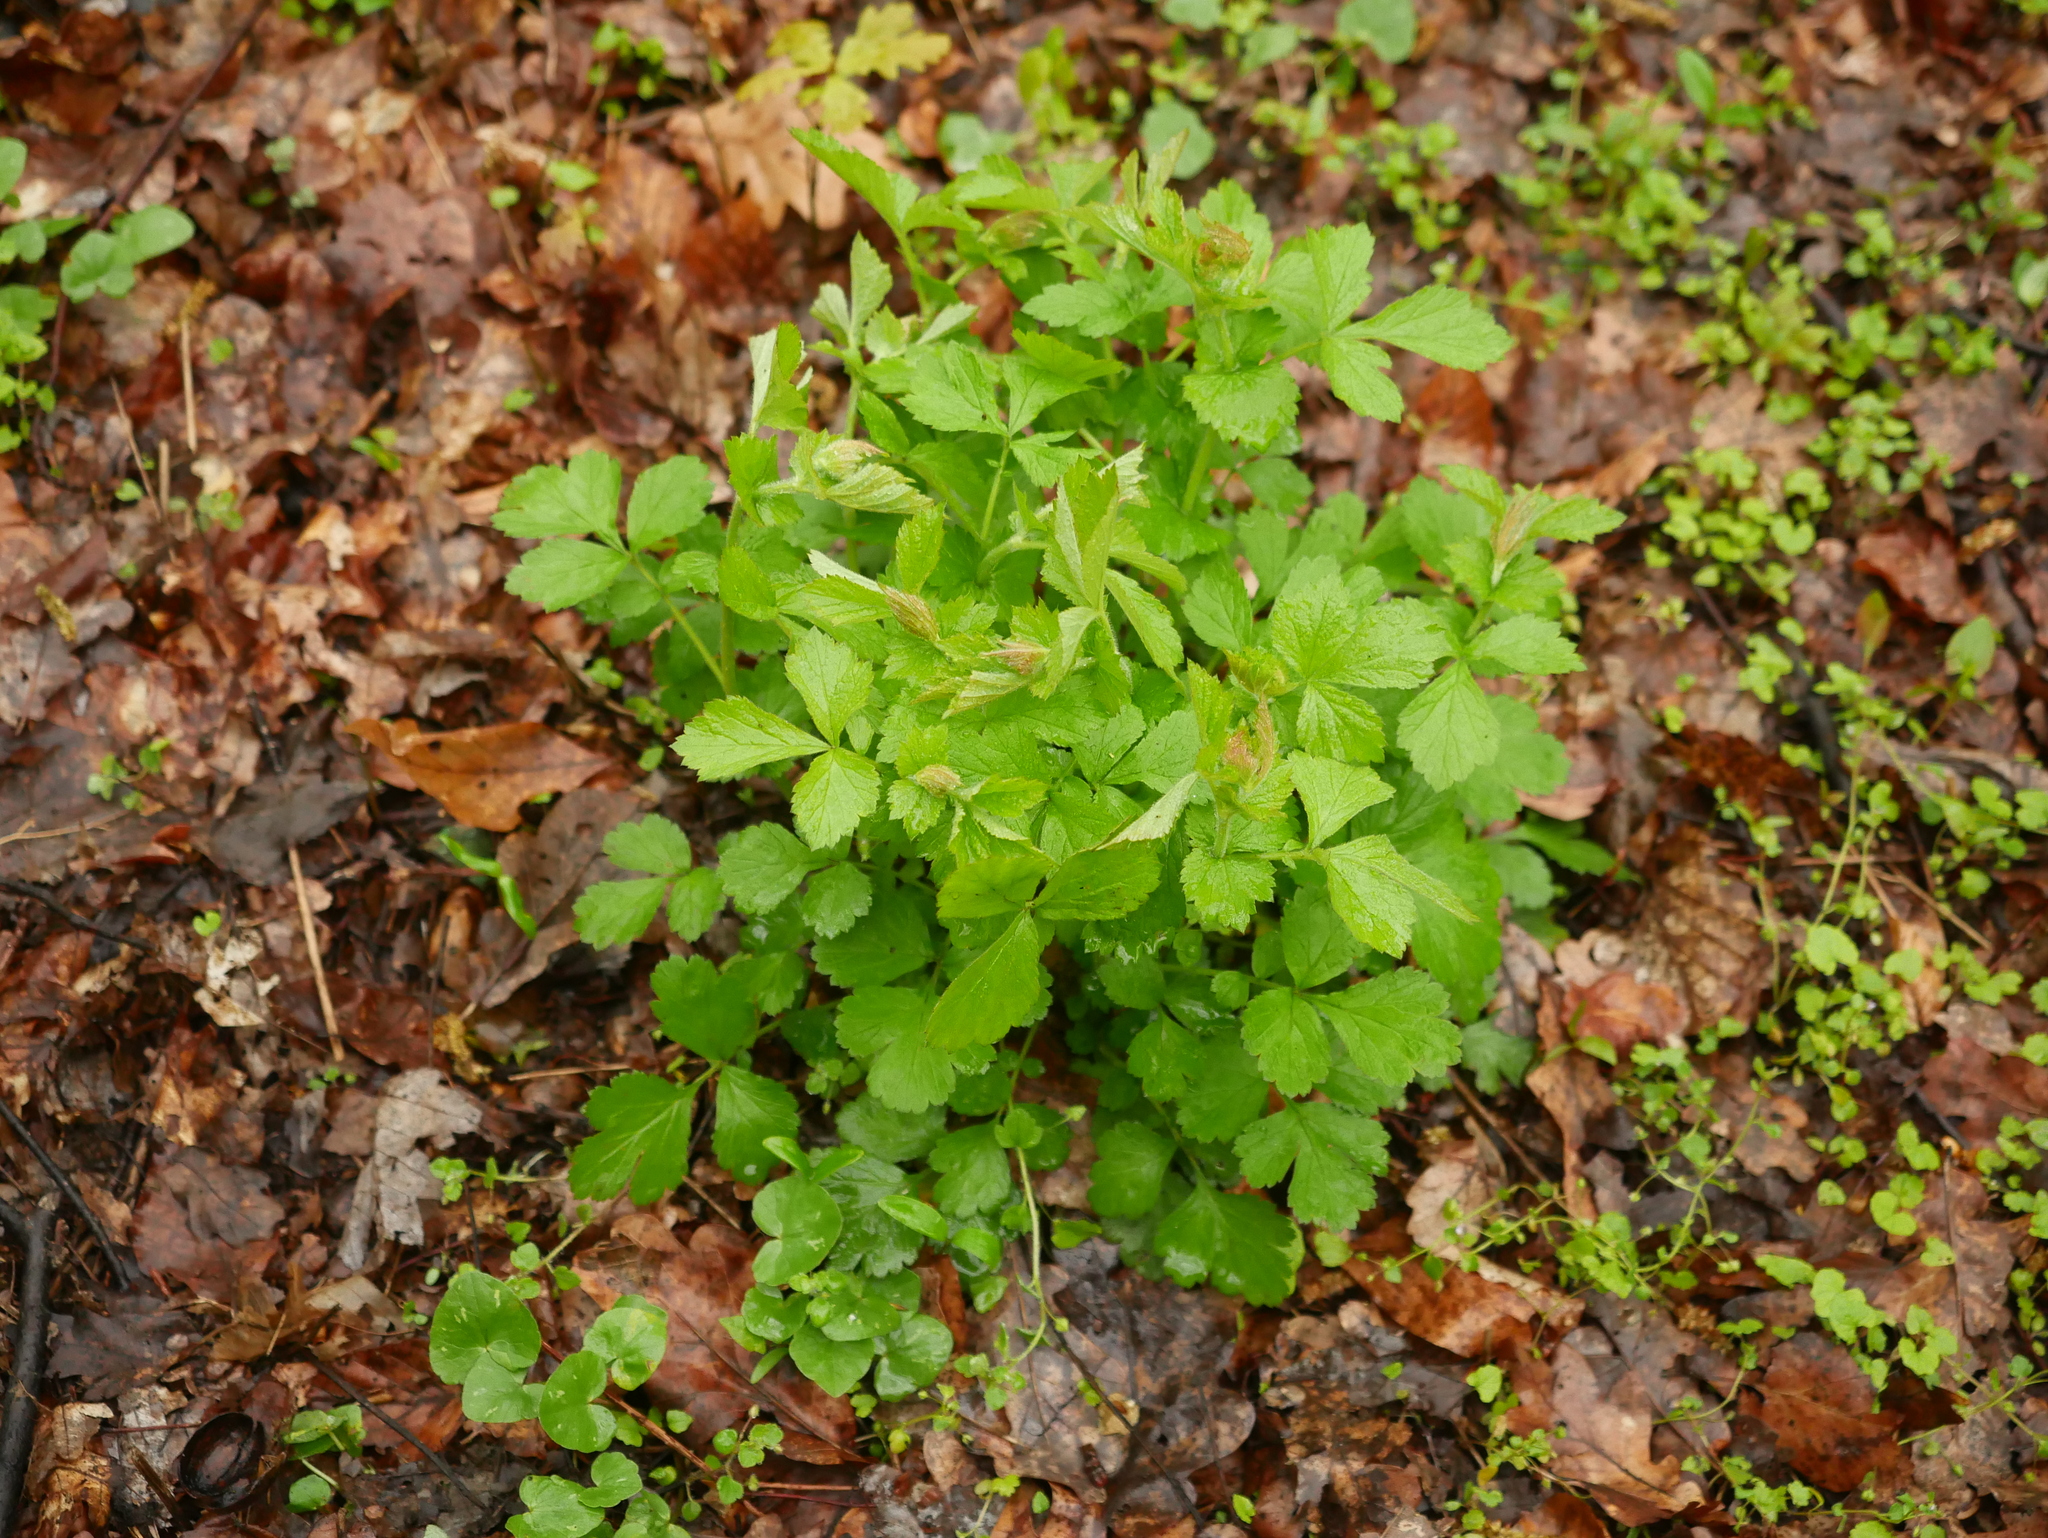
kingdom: Plantae
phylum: Tracheophyta
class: Magnoliopsida
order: Rosales
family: Rosaceae
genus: Geum
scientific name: Geum urbanum
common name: Wood avens
